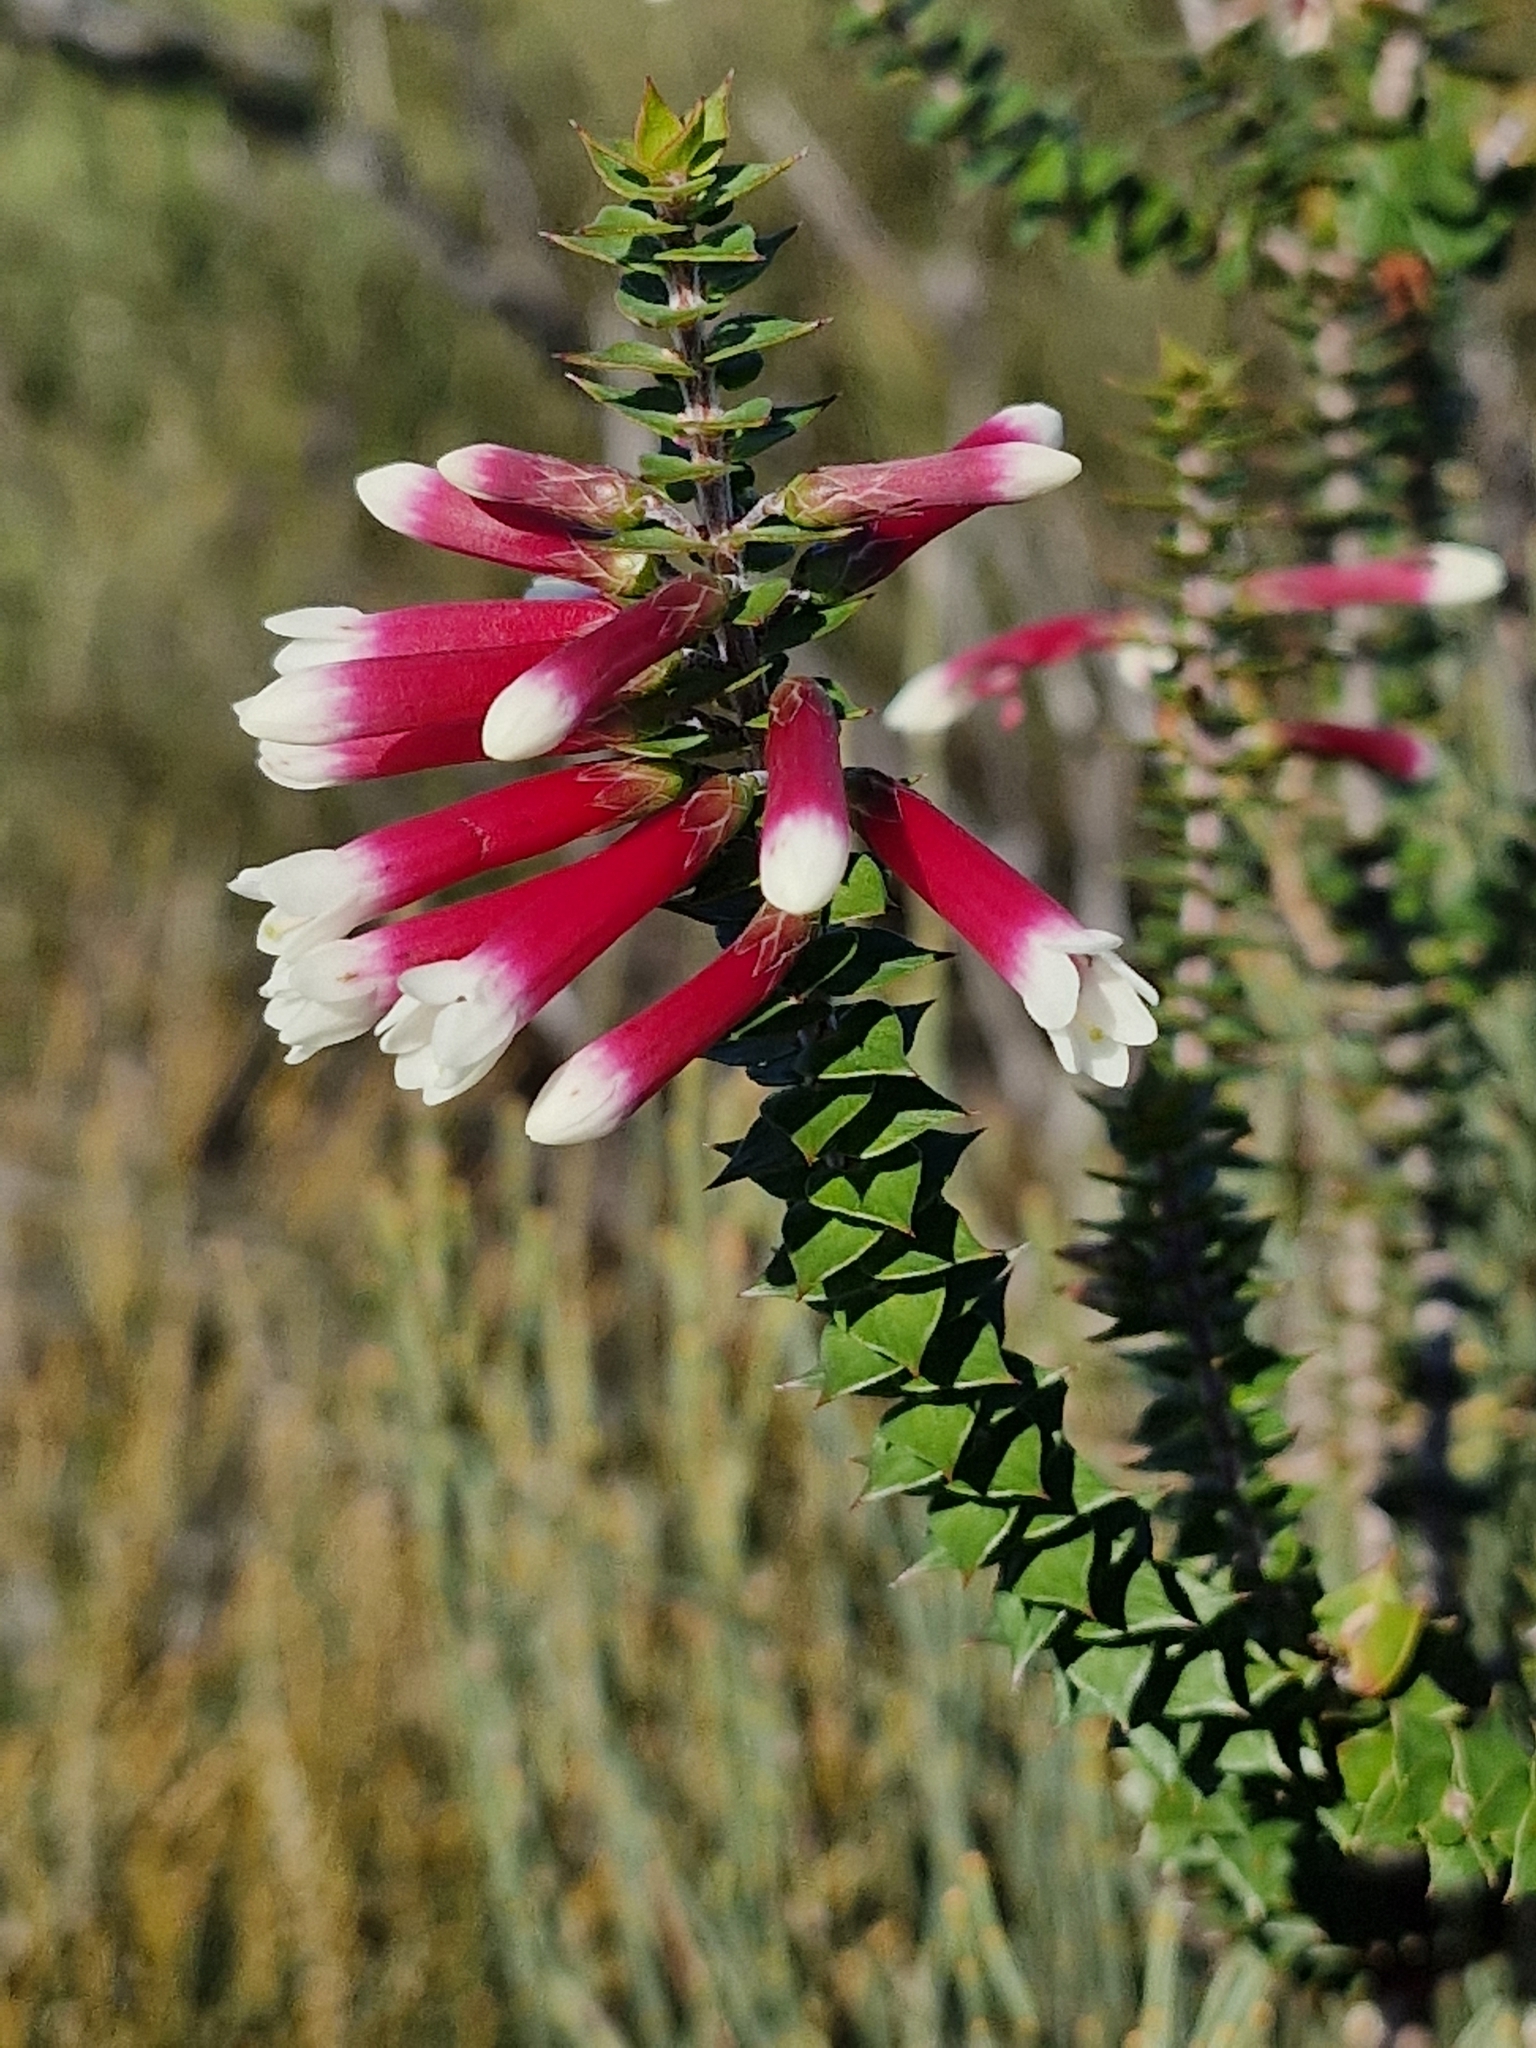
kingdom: Plantae
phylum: Tracheophyta
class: Magnoliopsida
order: Ericales
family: Ericaceae
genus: Epacris
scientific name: Epacris longiflora
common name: Fuchsia-heath
